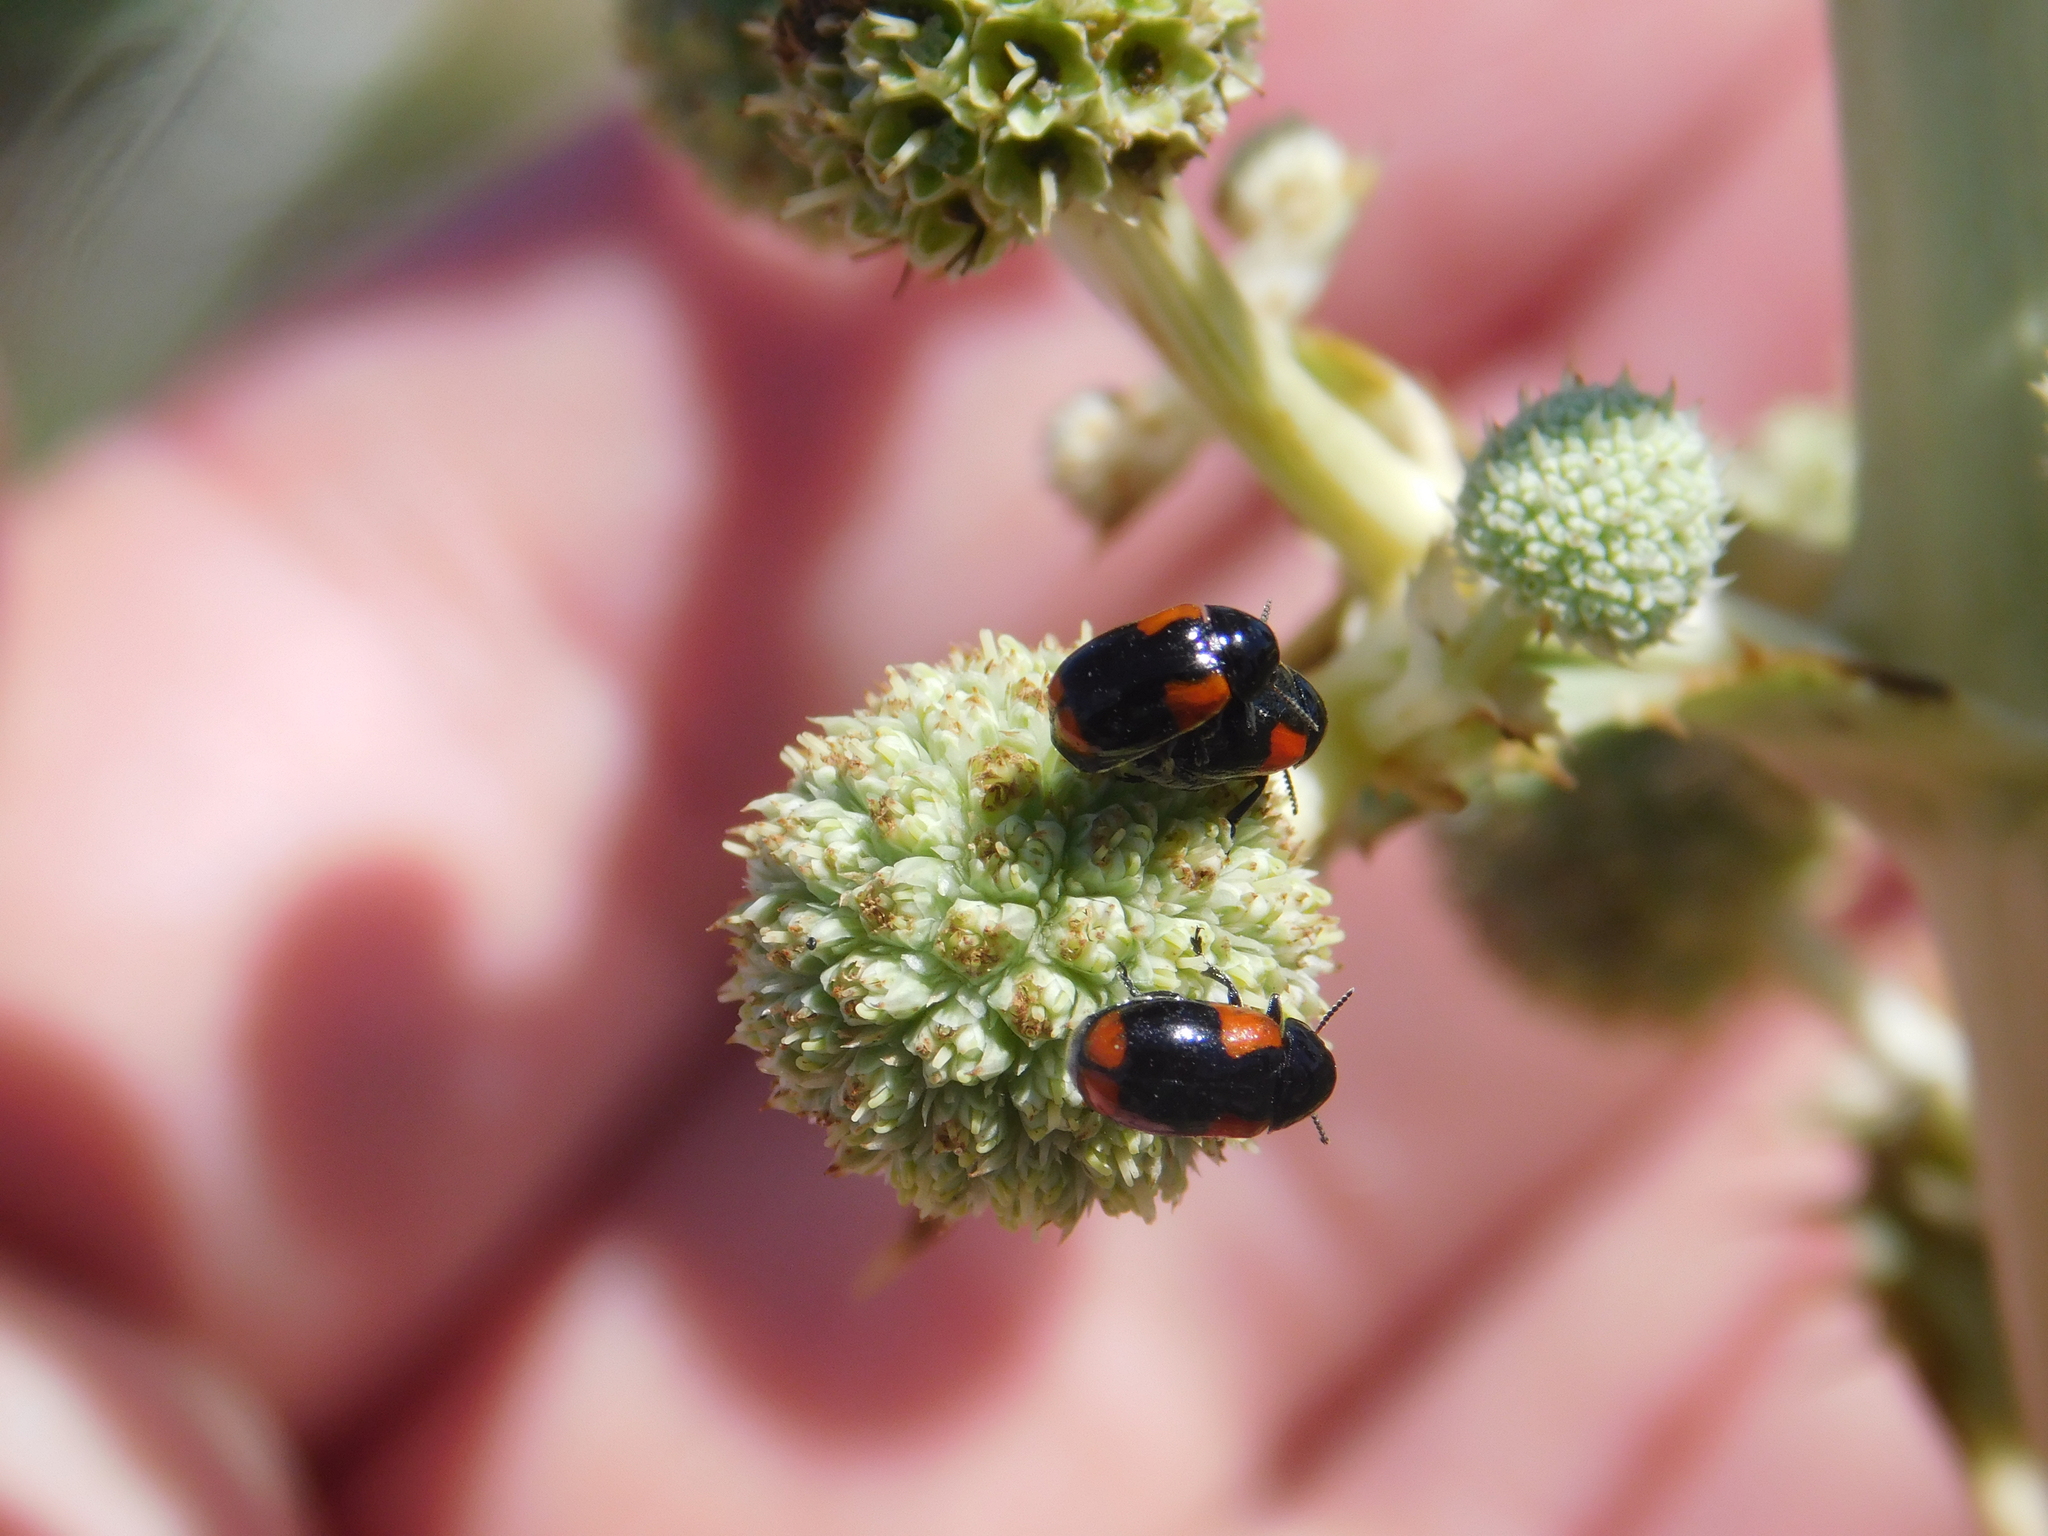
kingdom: Animalia
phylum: Arthropoda
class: Insecta
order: Coleoptera
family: Chrysomelidae
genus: Temnodachrys
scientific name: Temnodachrys
